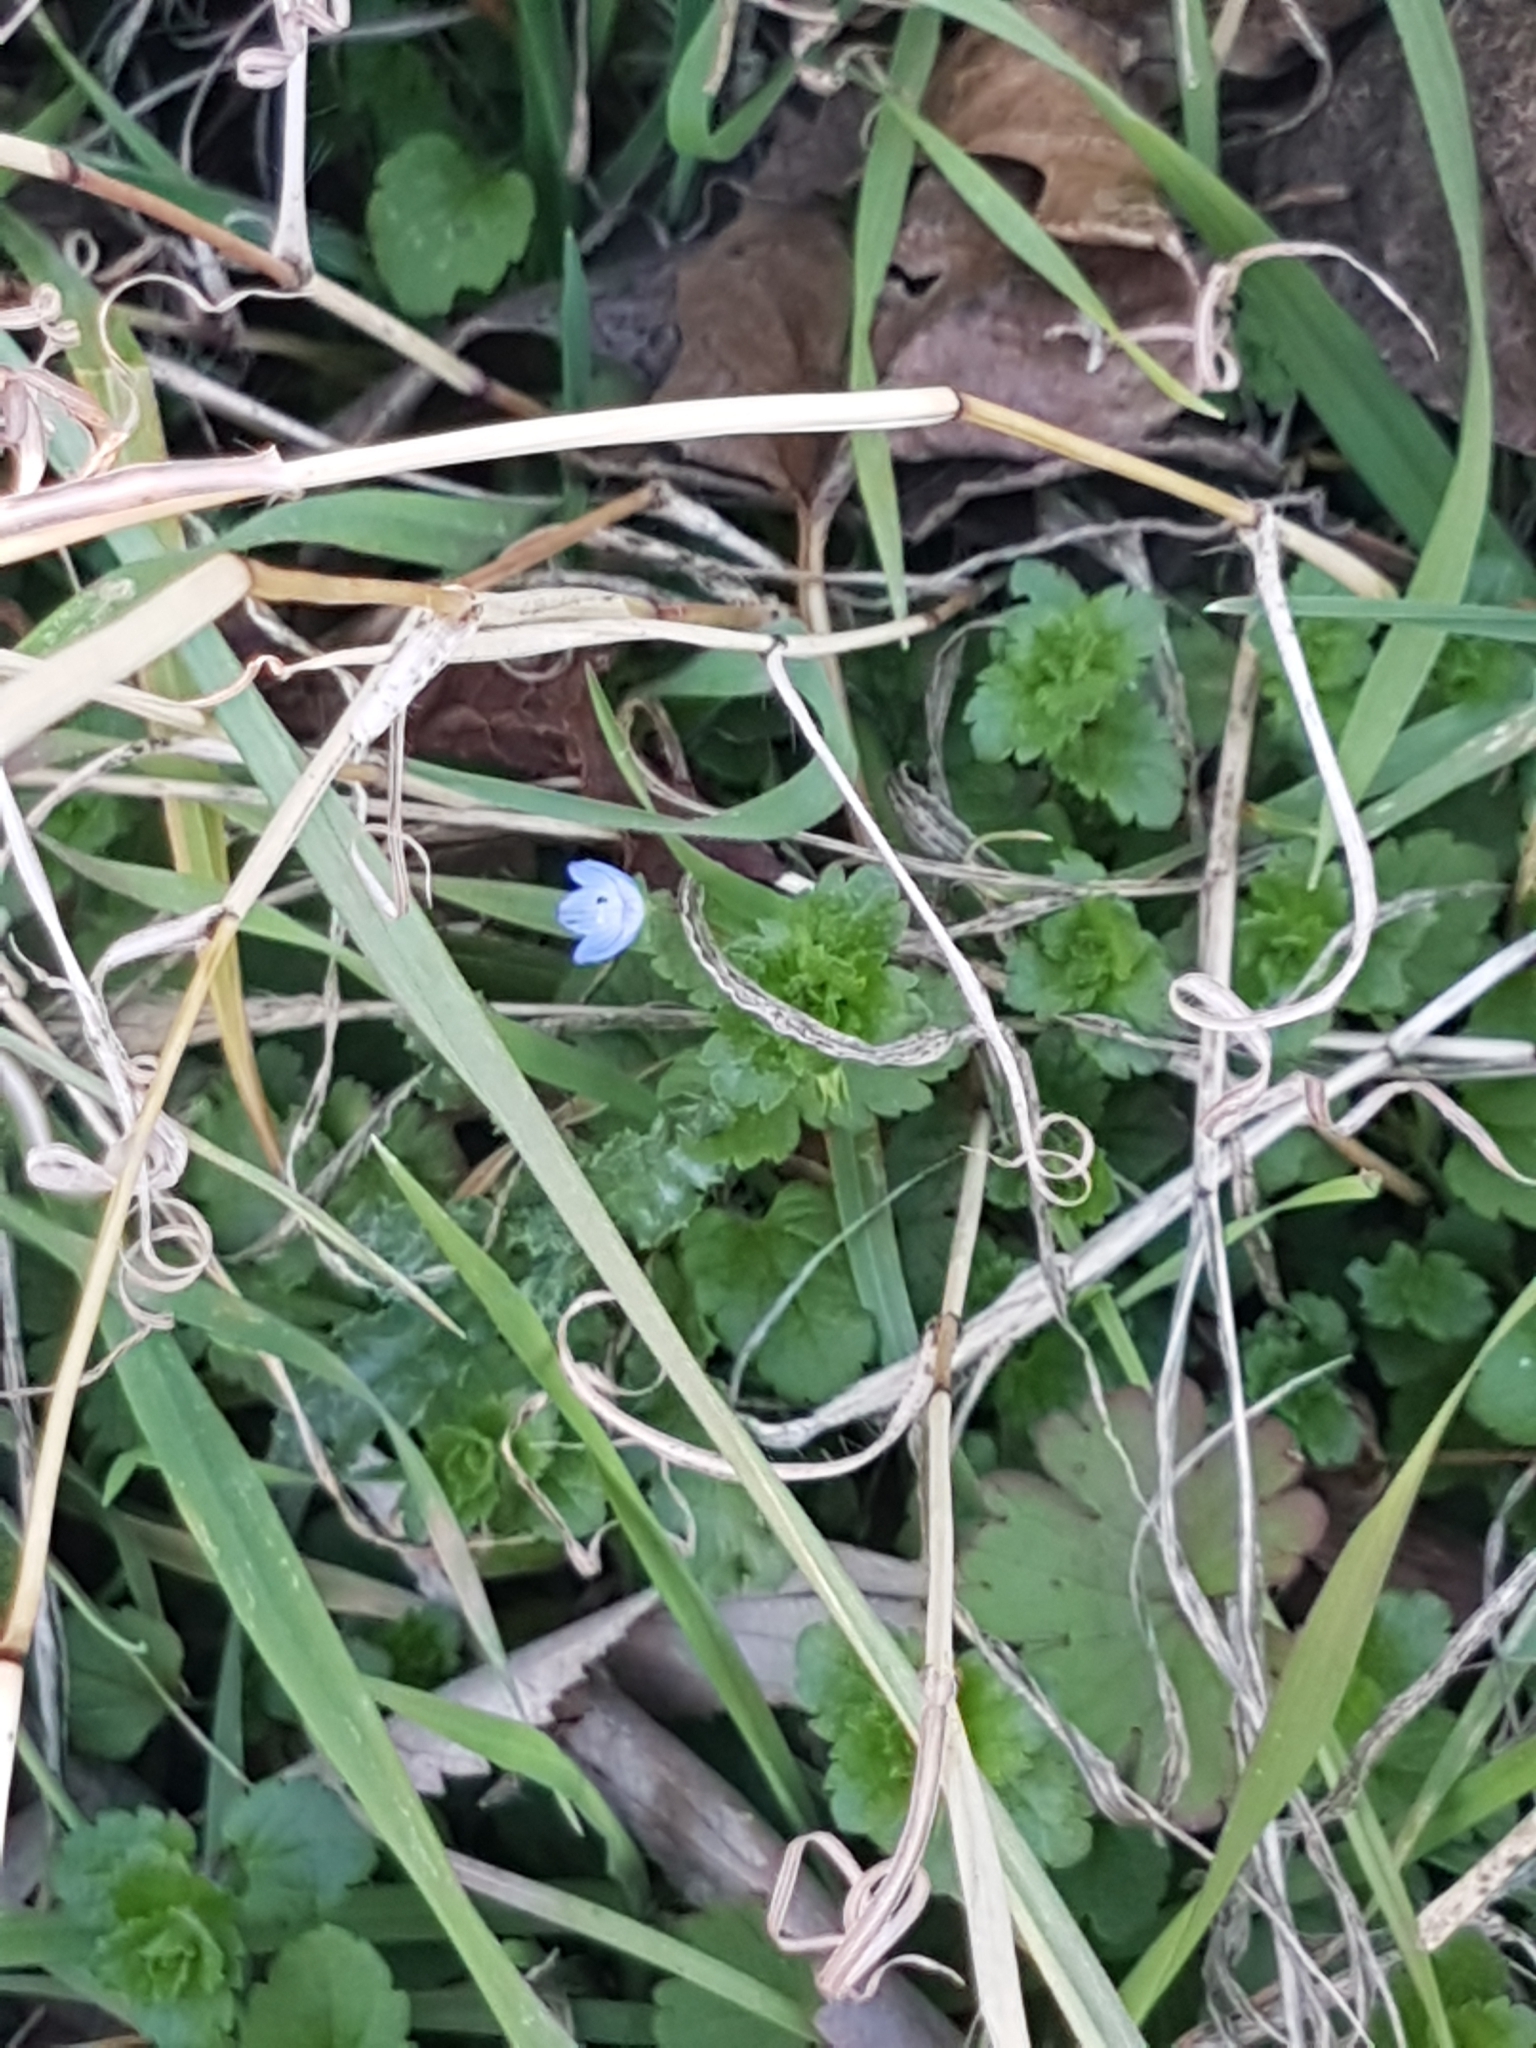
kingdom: Plantae
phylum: Tracheophyta
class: Magnoliopsida
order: Lamiales
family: Plantaginaceae
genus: Veronica
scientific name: Veronica persica
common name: Common field-speedwell
